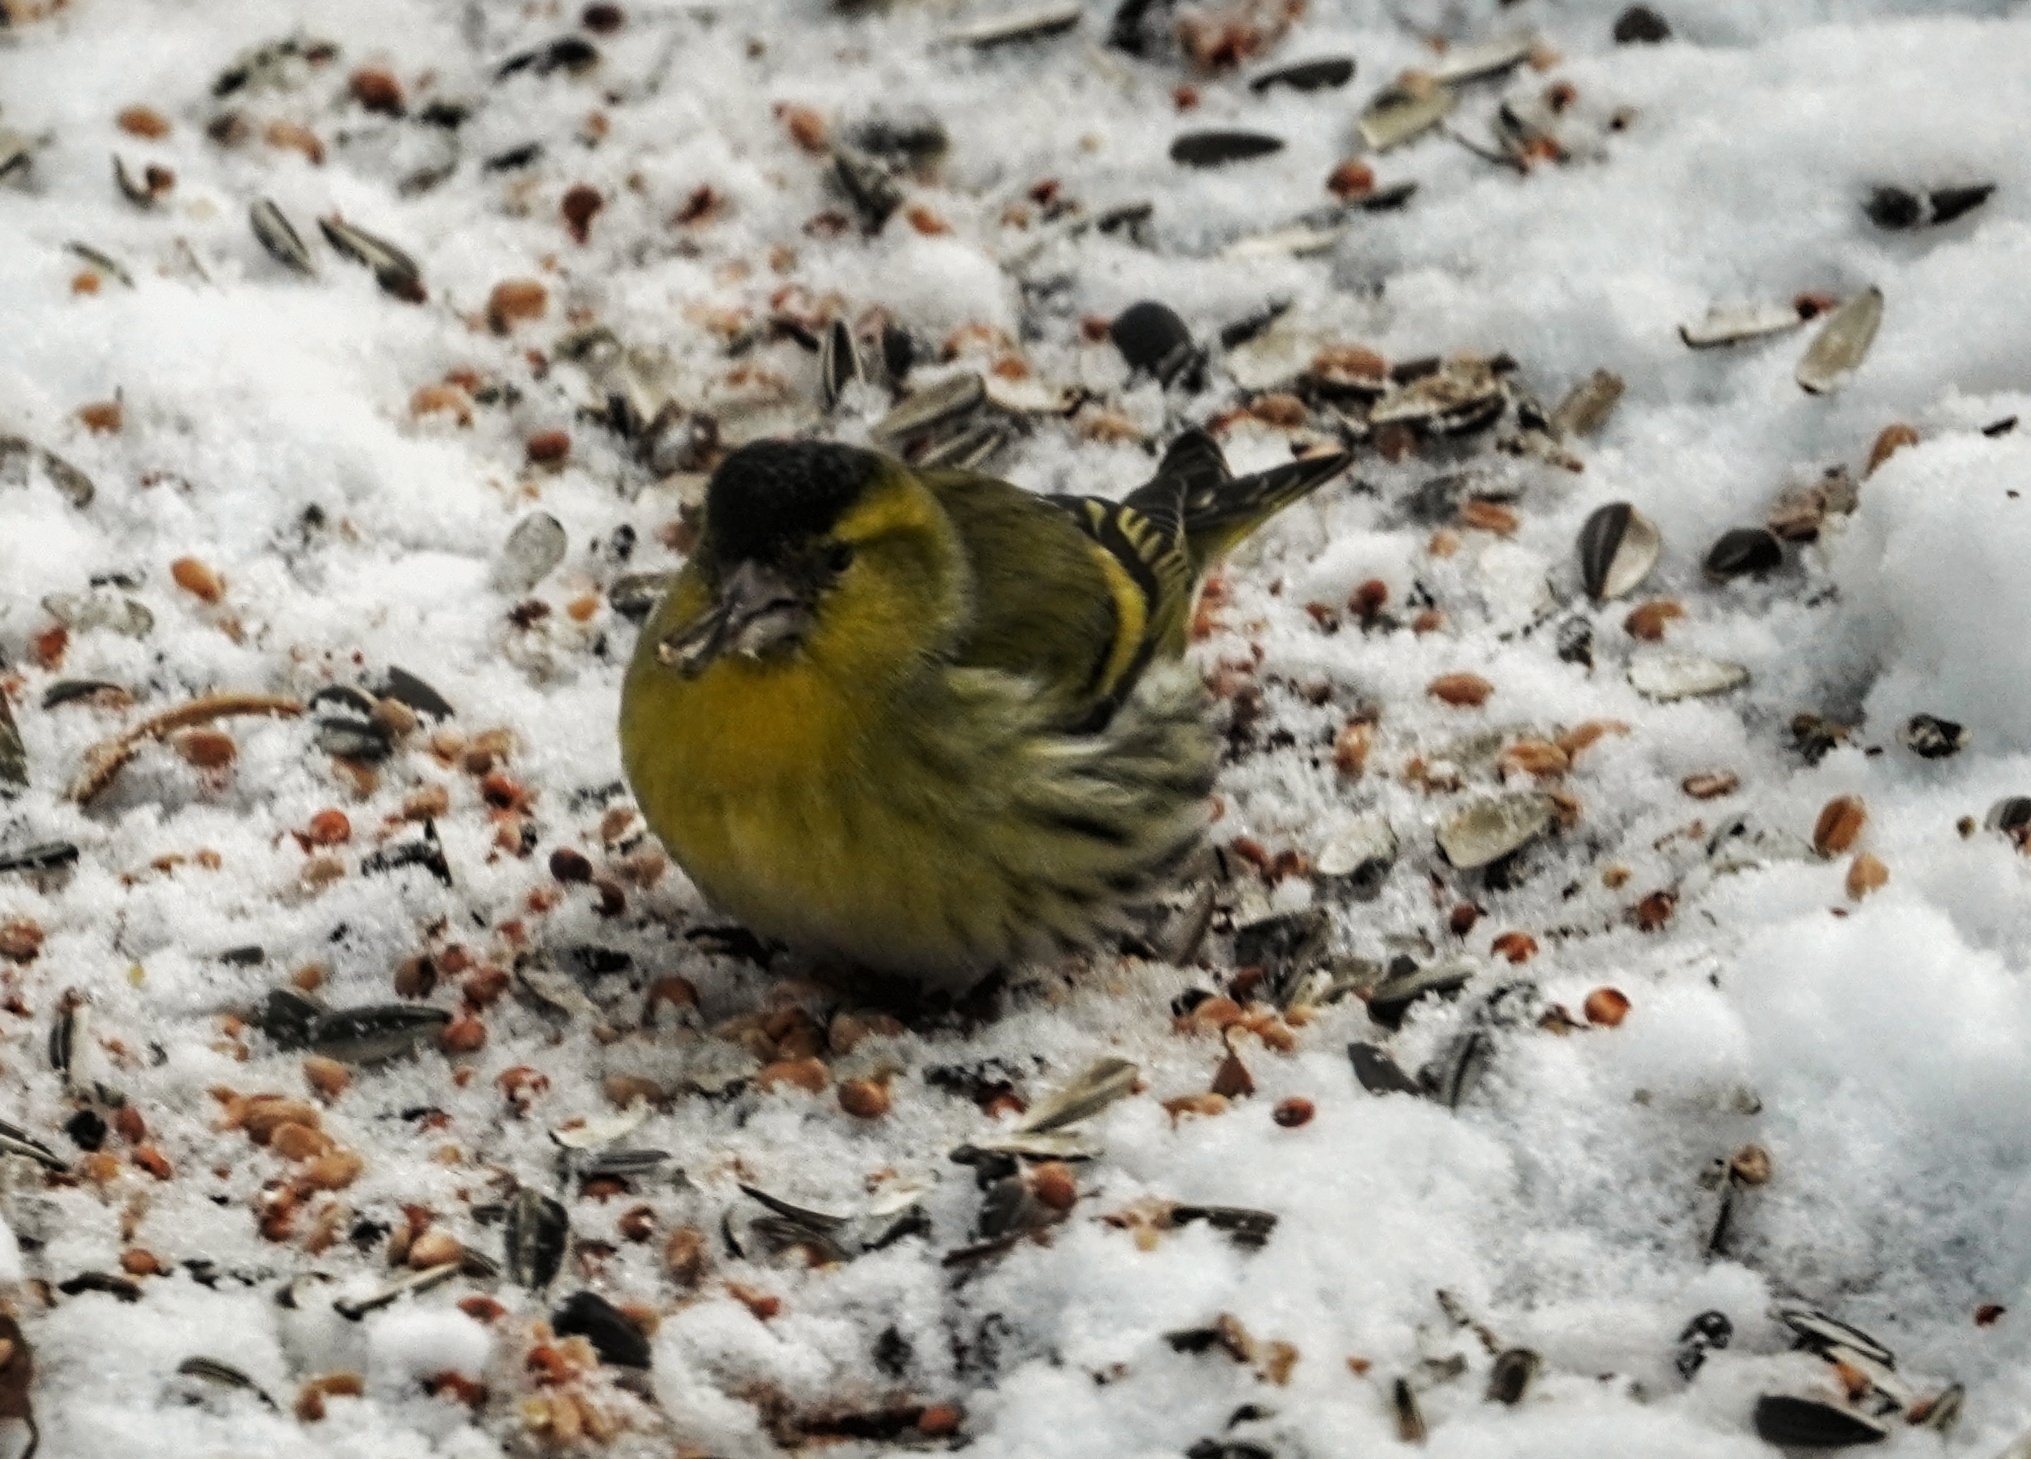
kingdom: Animalia
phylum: Chordata
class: Aves
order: Passeriformes
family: Fringillidae
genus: Spinus
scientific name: Spinus spinus
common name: Eurasian siskin
